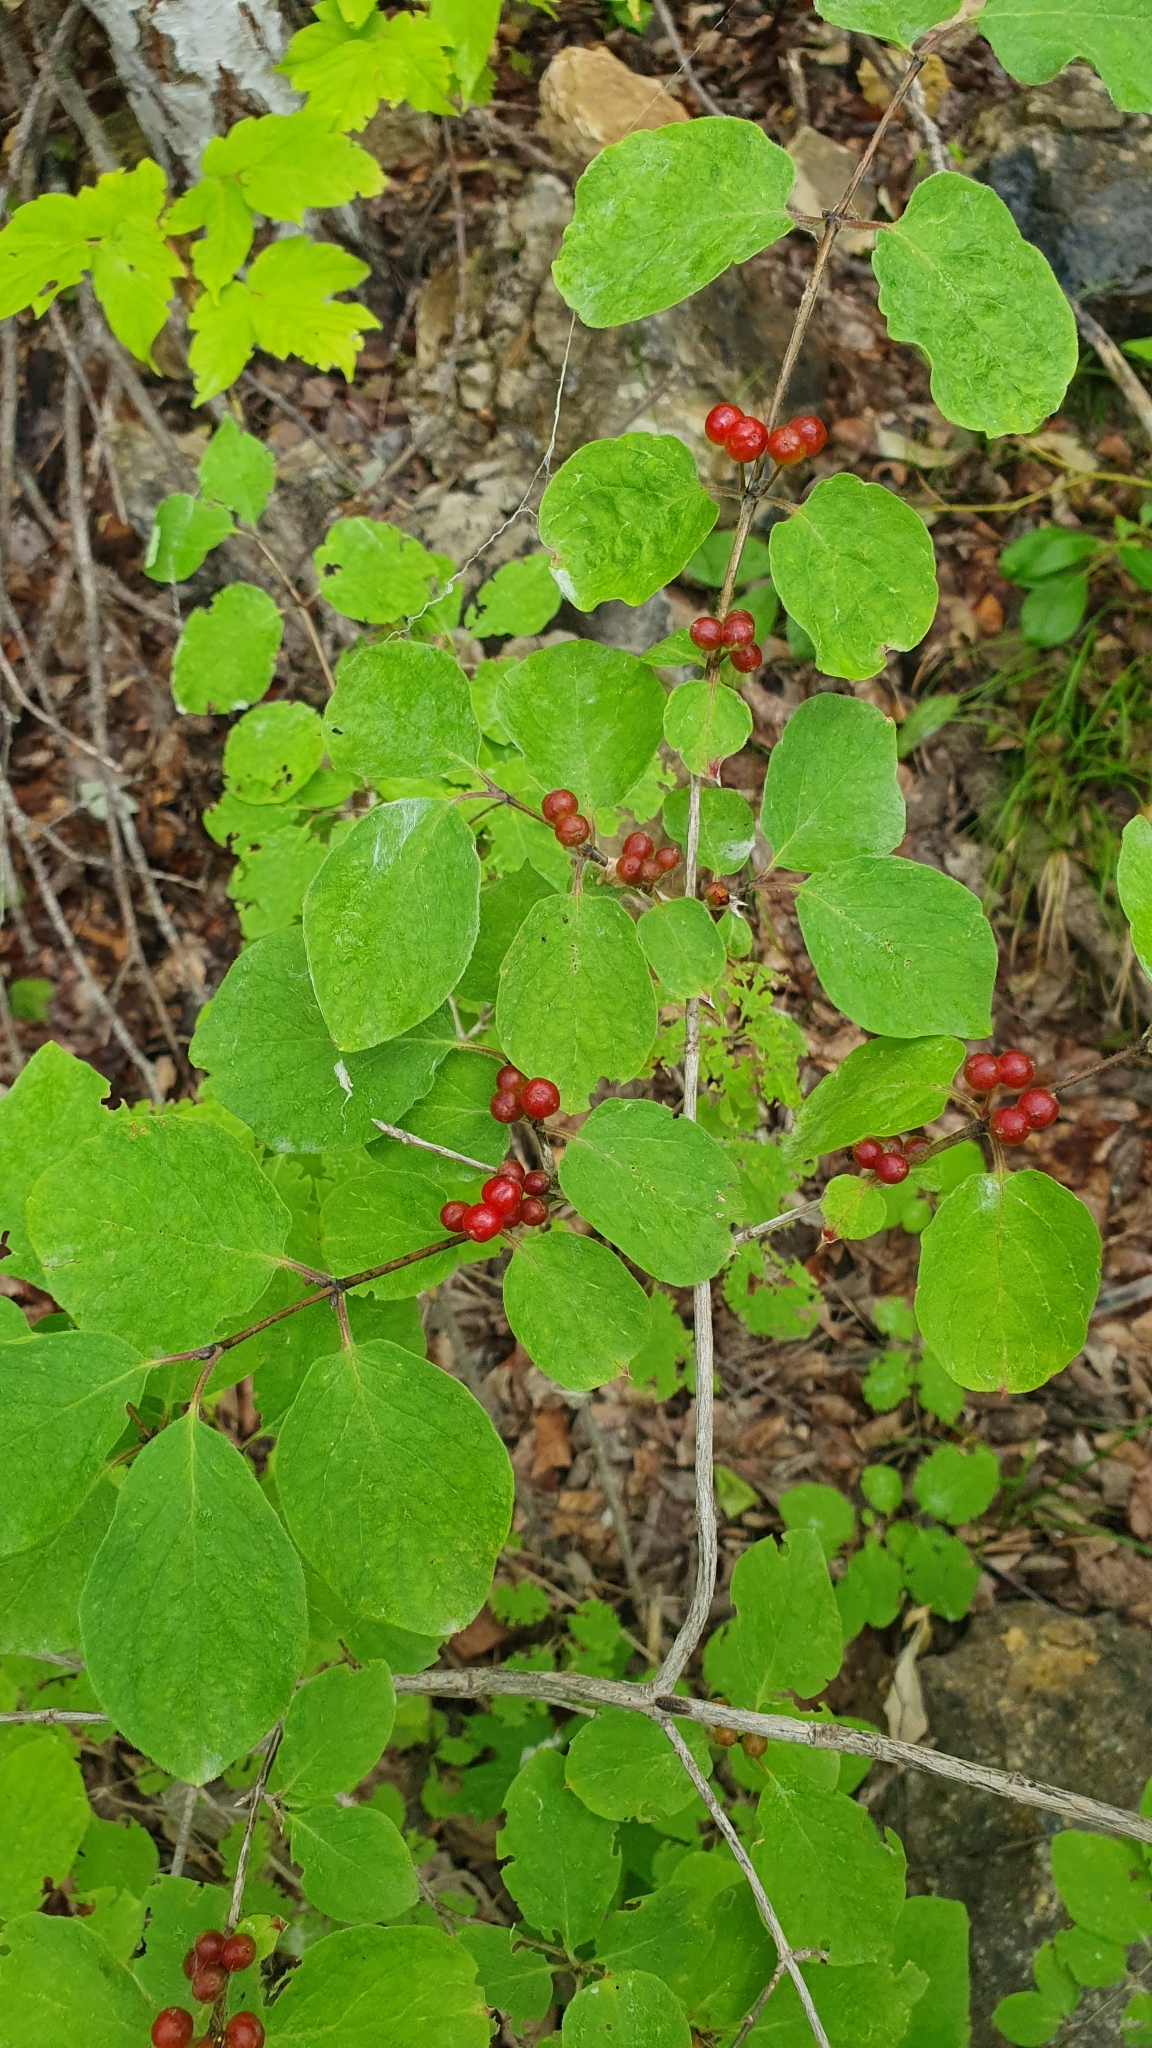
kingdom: Plantae
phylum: Tracheophyta
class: Magnoliopsida
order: Dipsacales
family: Caprifoliaceae
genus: Lonicera
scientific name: Lonicera xylosteum
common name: Fly honeysuckle
